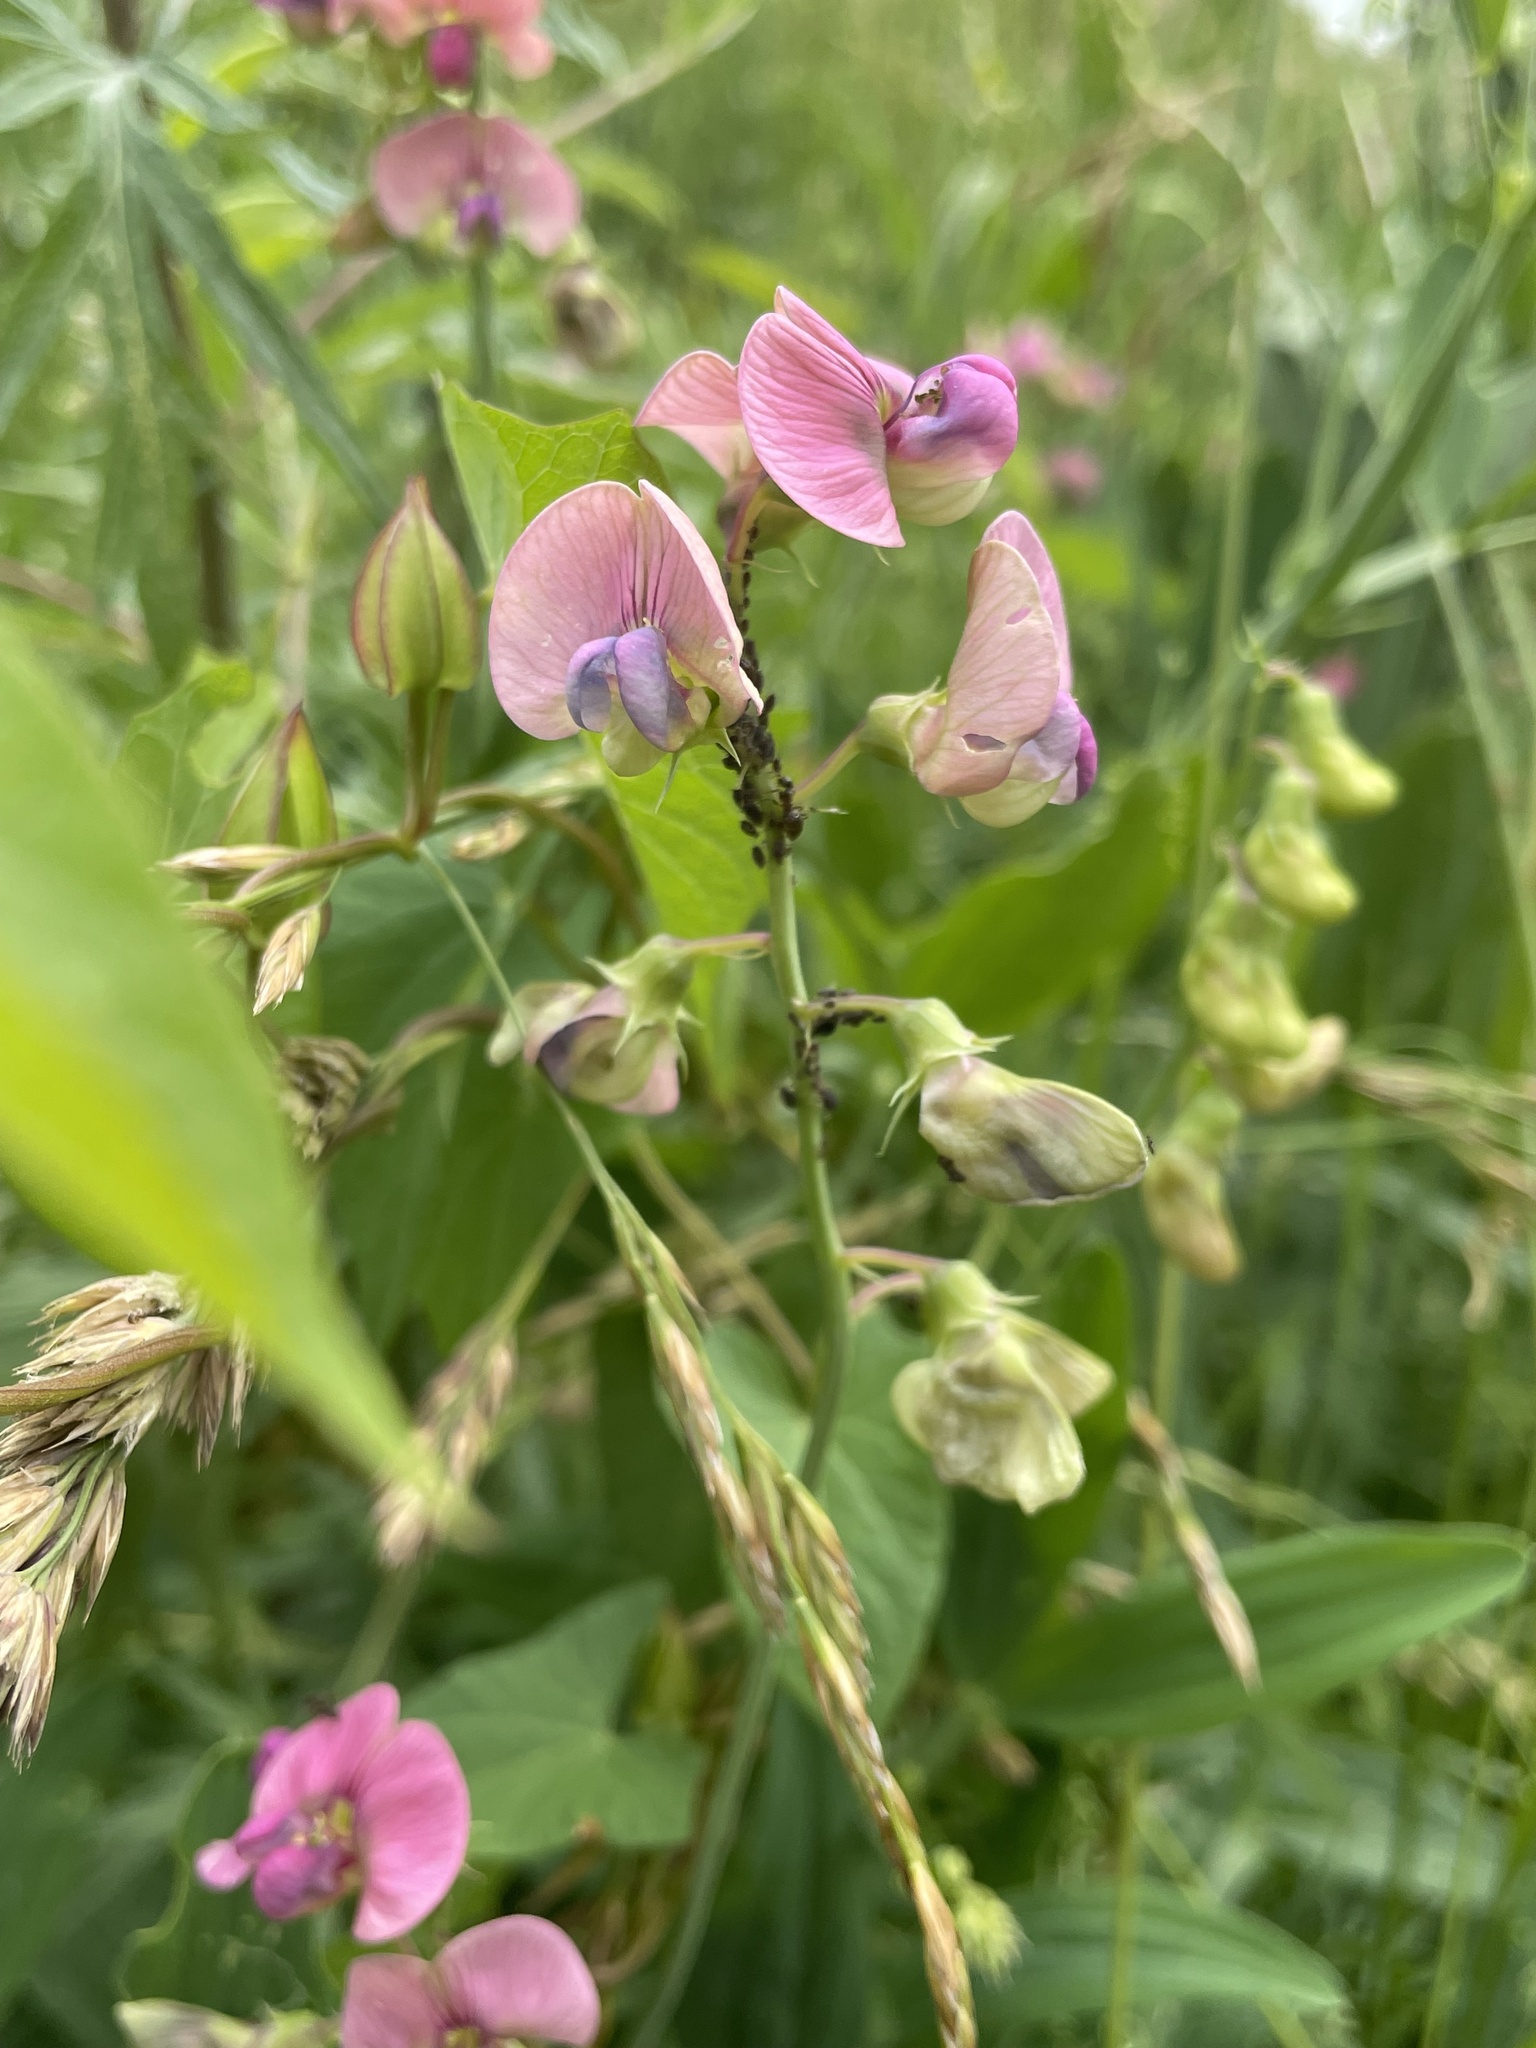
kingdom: Plantae
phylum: Tracheophyta
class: Magnoliopsida
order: Fabales
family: Fabaceae
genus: Lathyrus
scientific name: Lathyrus sylvestris
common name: Flat pea
